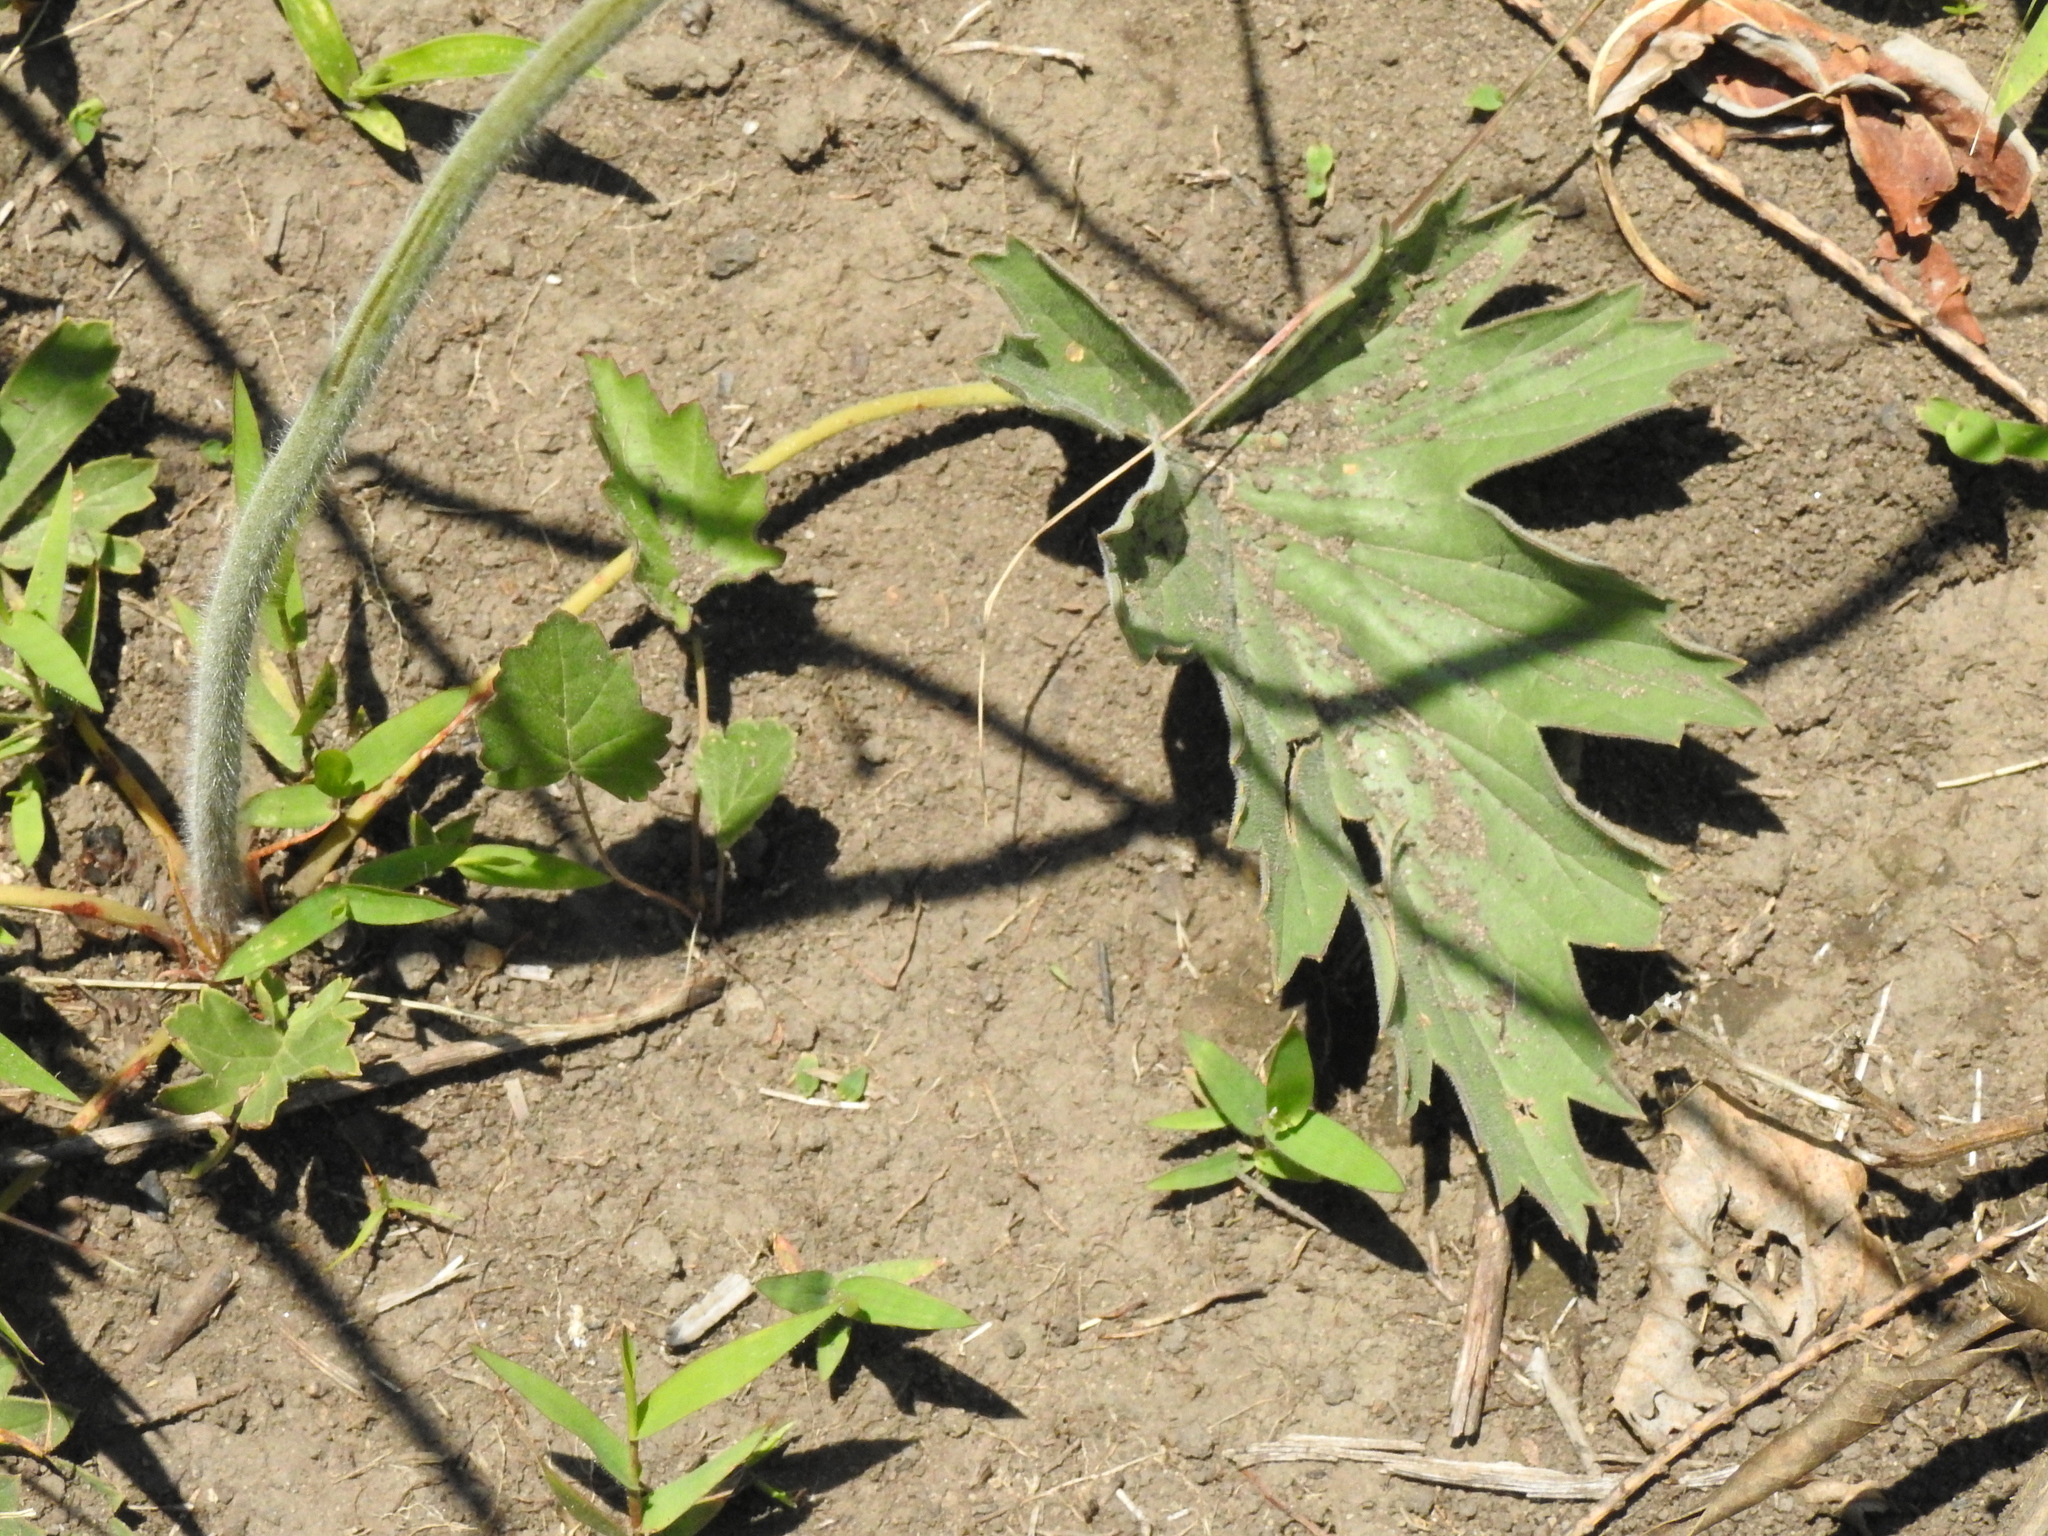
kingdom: Plantae
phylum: Tracheophyta
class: Magnoliopsida
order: Geraniales
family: Geraniaceae
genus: Pelargonium
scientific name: Pelargonium luridum
